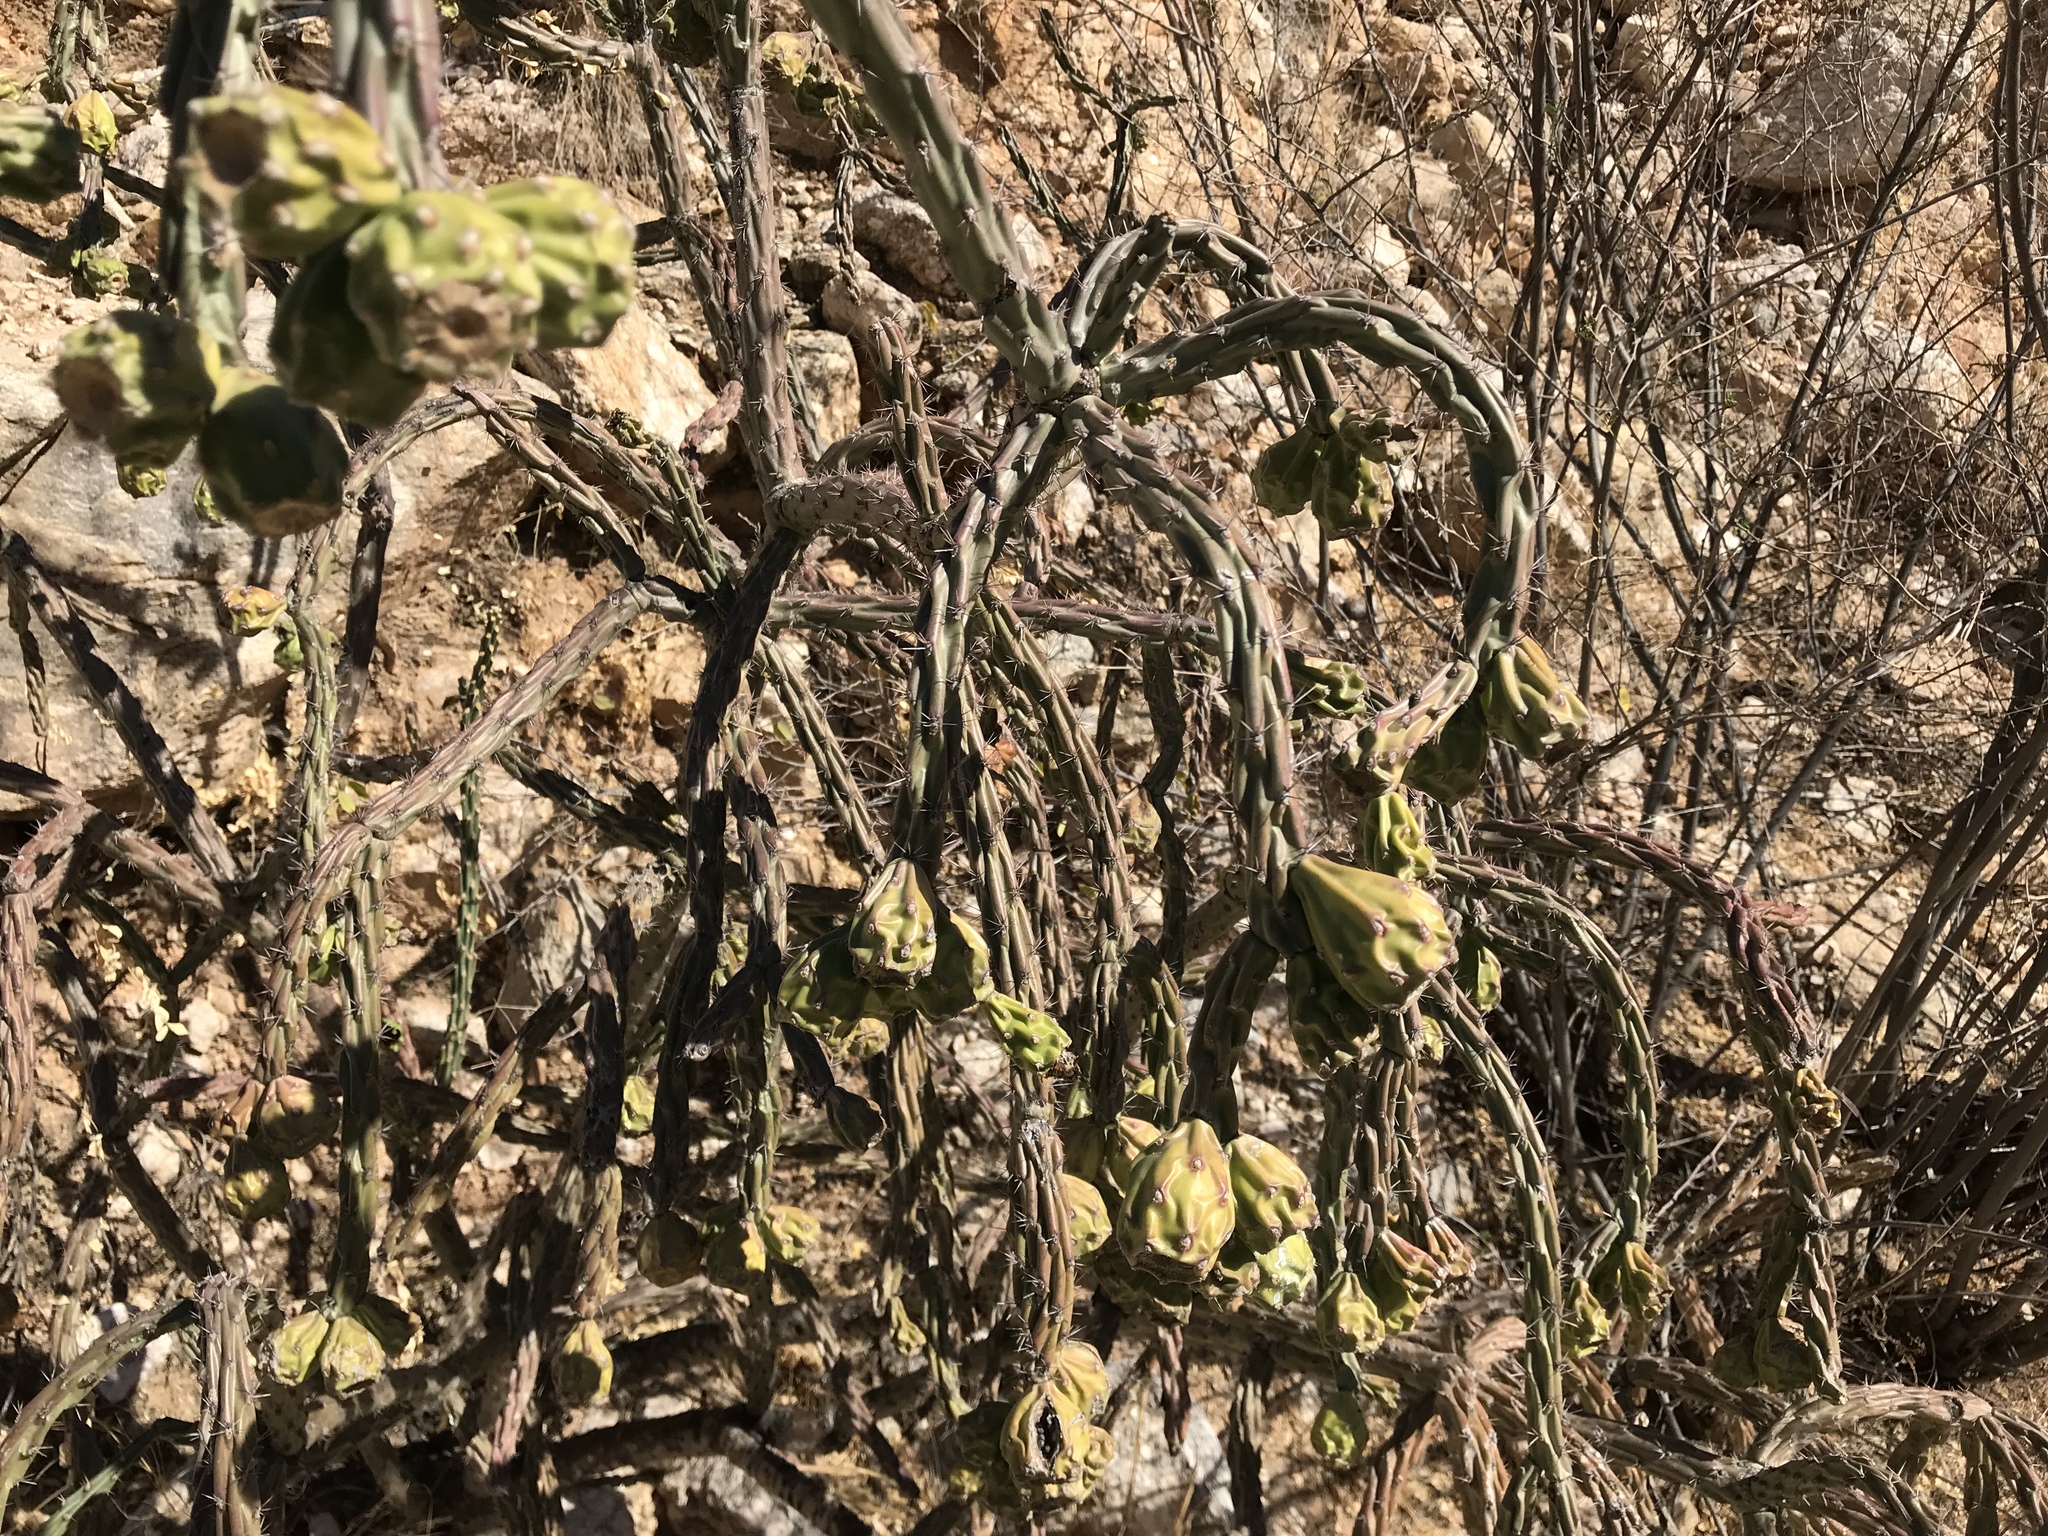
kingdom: Plantae
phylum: Tracheophyta
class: Magnoliopsida
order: Caryophyllales
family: Cactaceae
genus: Cylindropuntia
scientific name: Cylindropuntia thurberi
